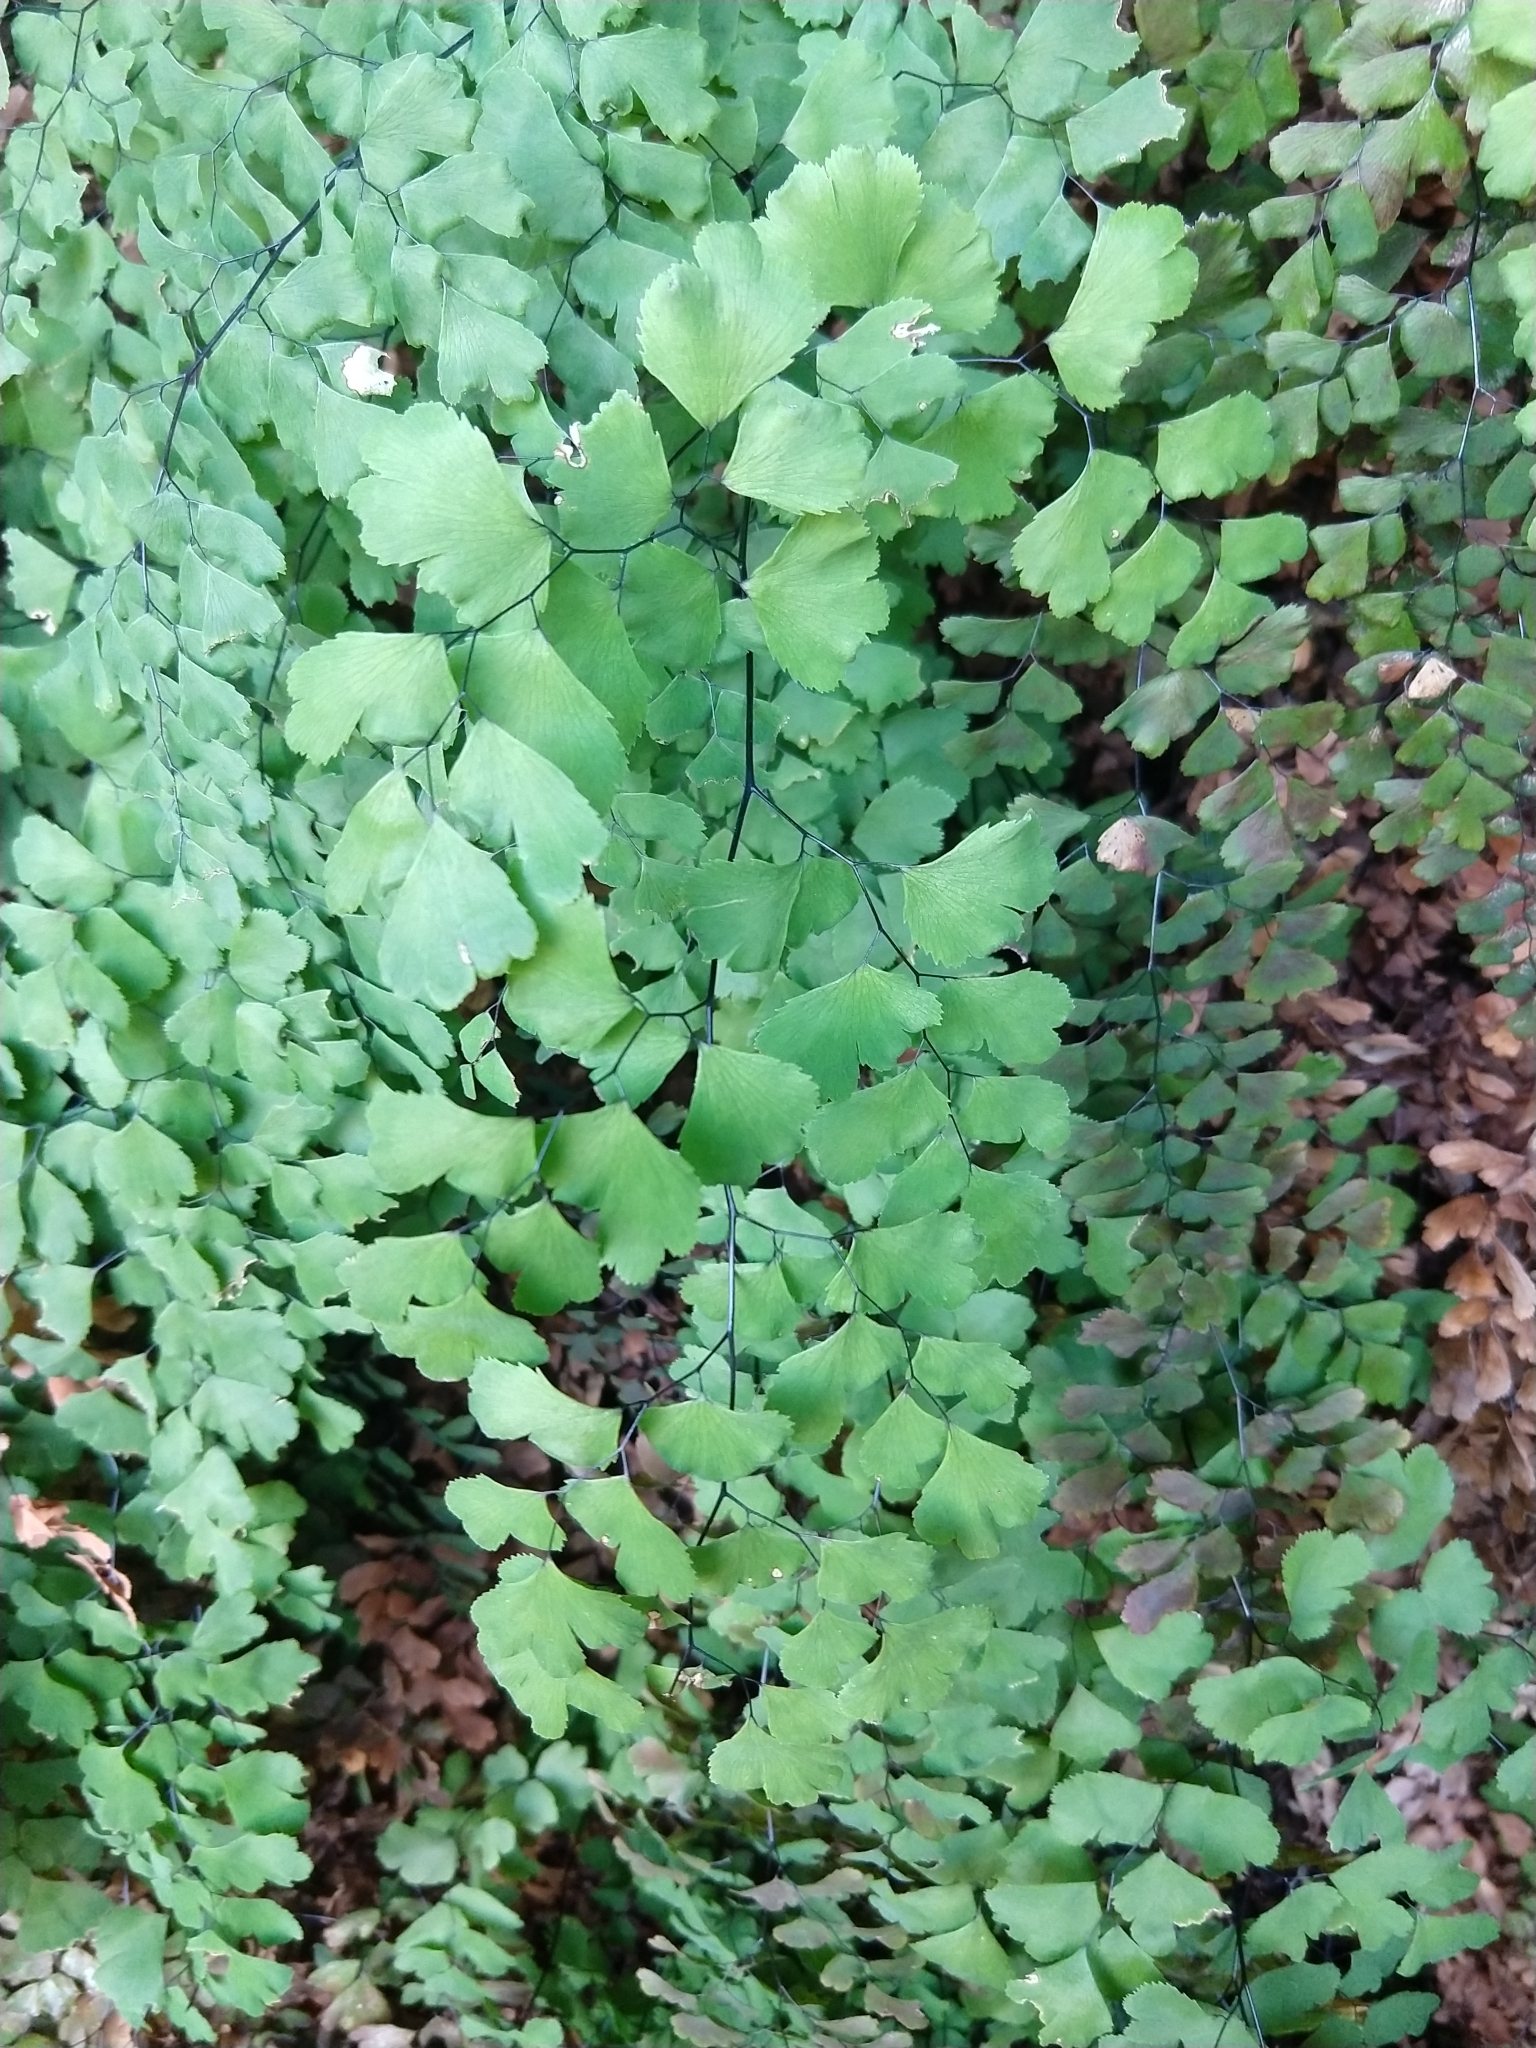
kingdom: Plantae
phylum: Tracheophyta
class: Polypodiopsida
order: Polypodiales
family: Pteridaceae
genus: Adiantum
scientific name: Adiantum capillus-veneris
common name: Maidenhair fern
